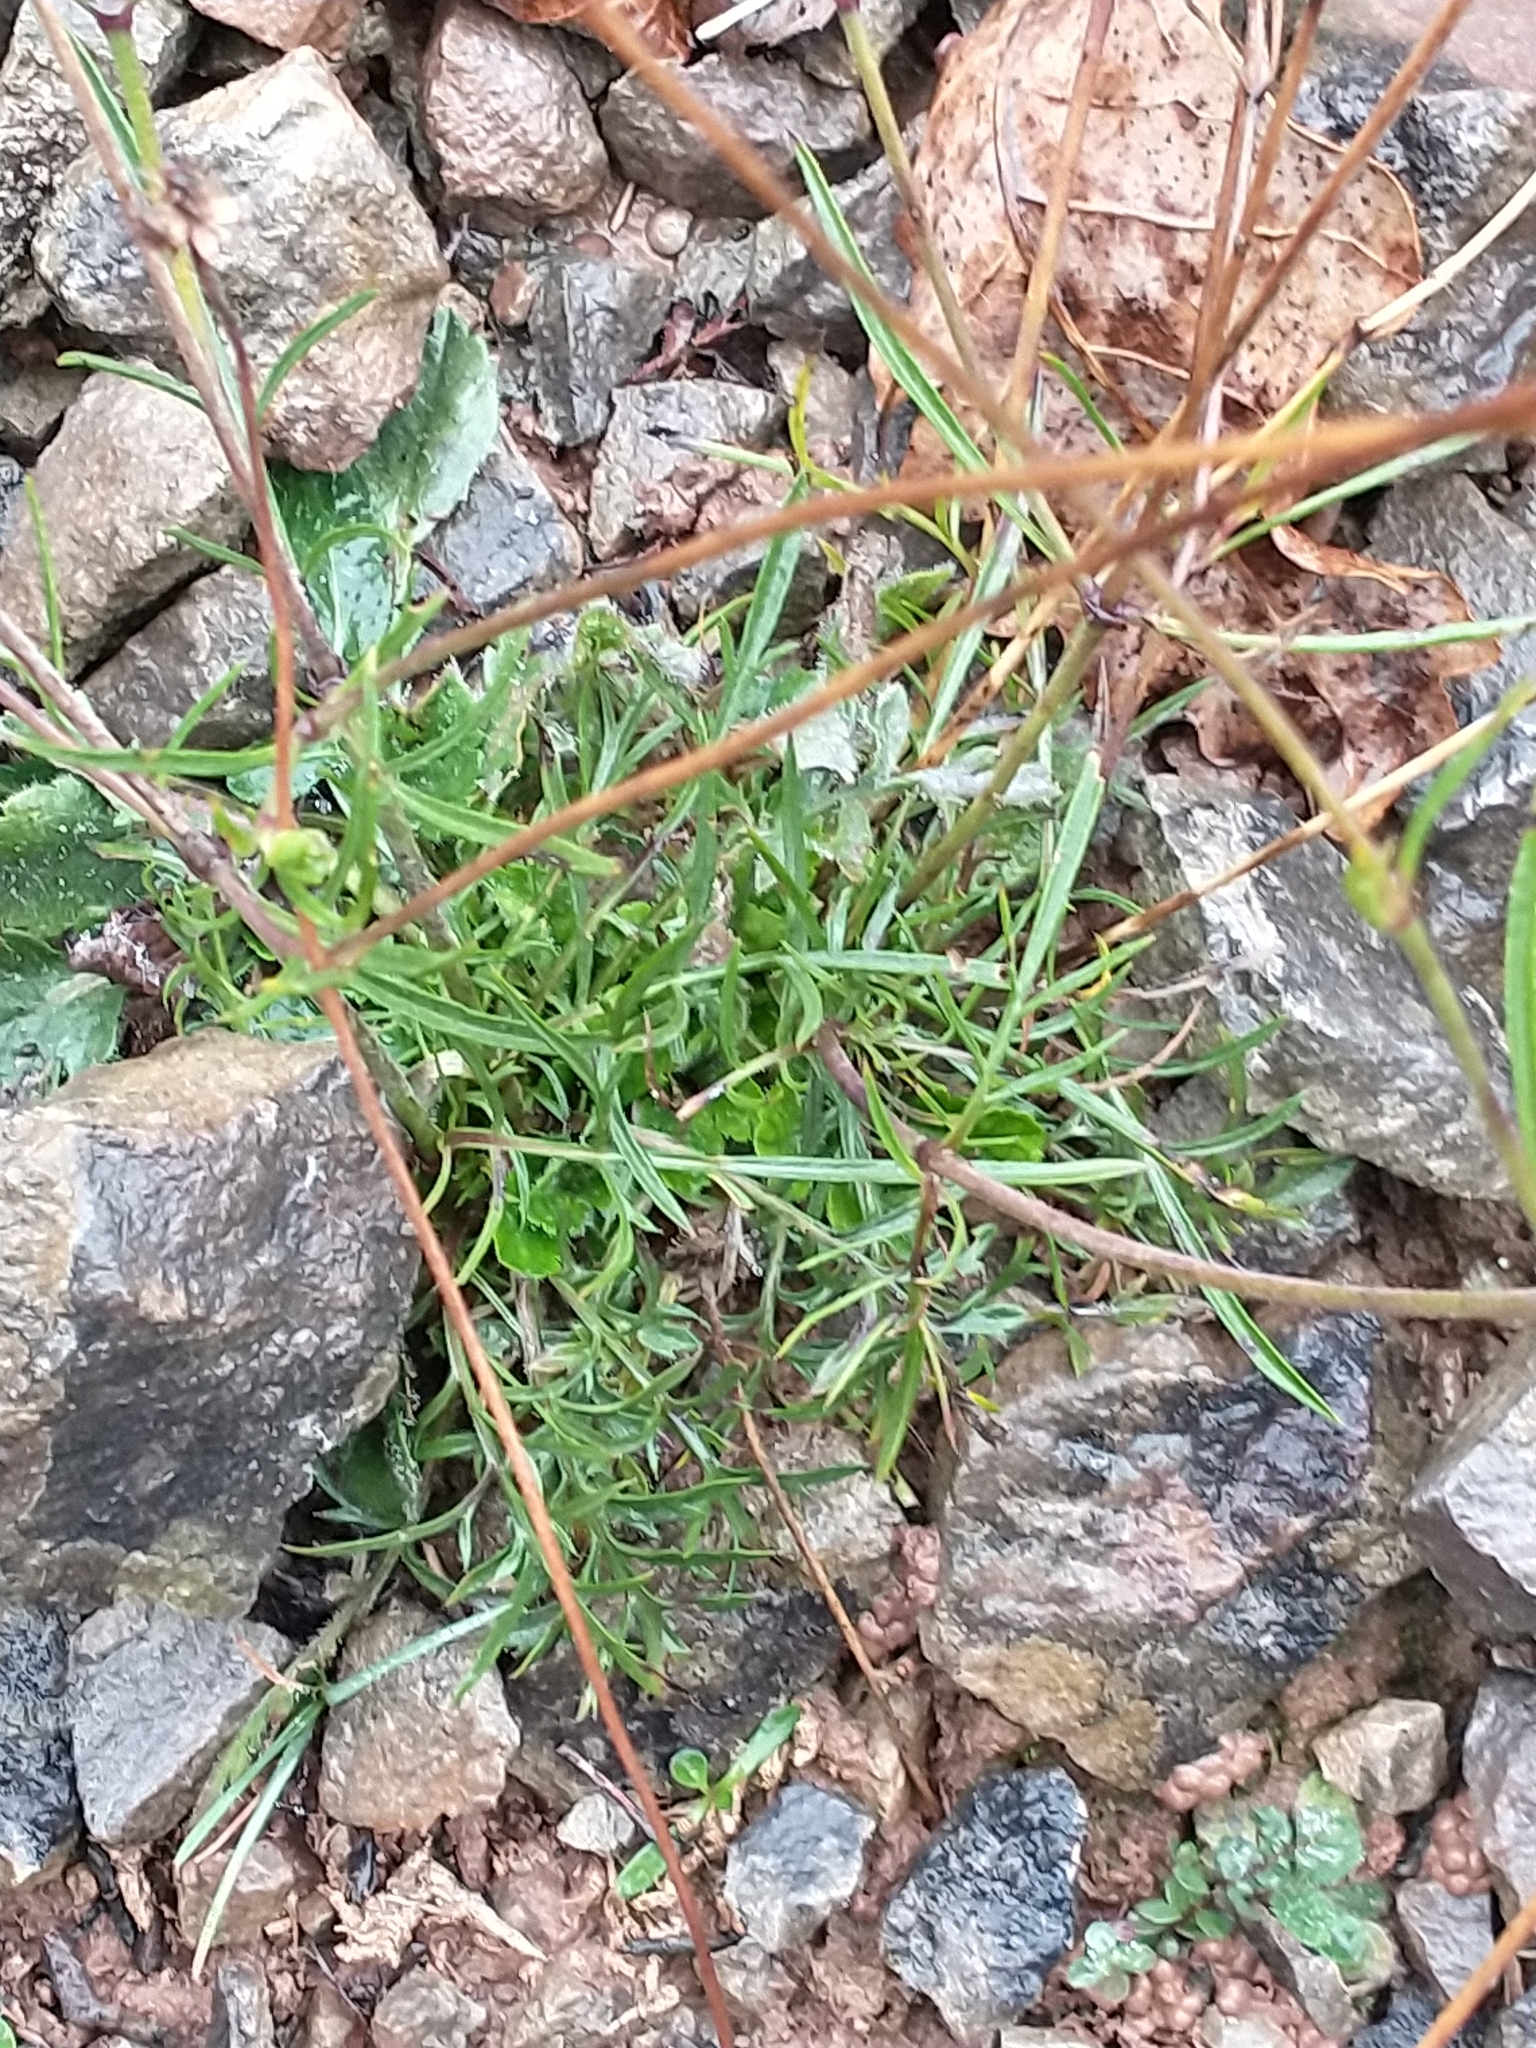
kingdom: Plantae
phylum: Tracheophyta
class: Magnoliopsida
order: Dipsacales
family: Caprifoliaceae
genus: Scabiosa
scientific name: Scabiosa columbaria
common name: Small scabious
